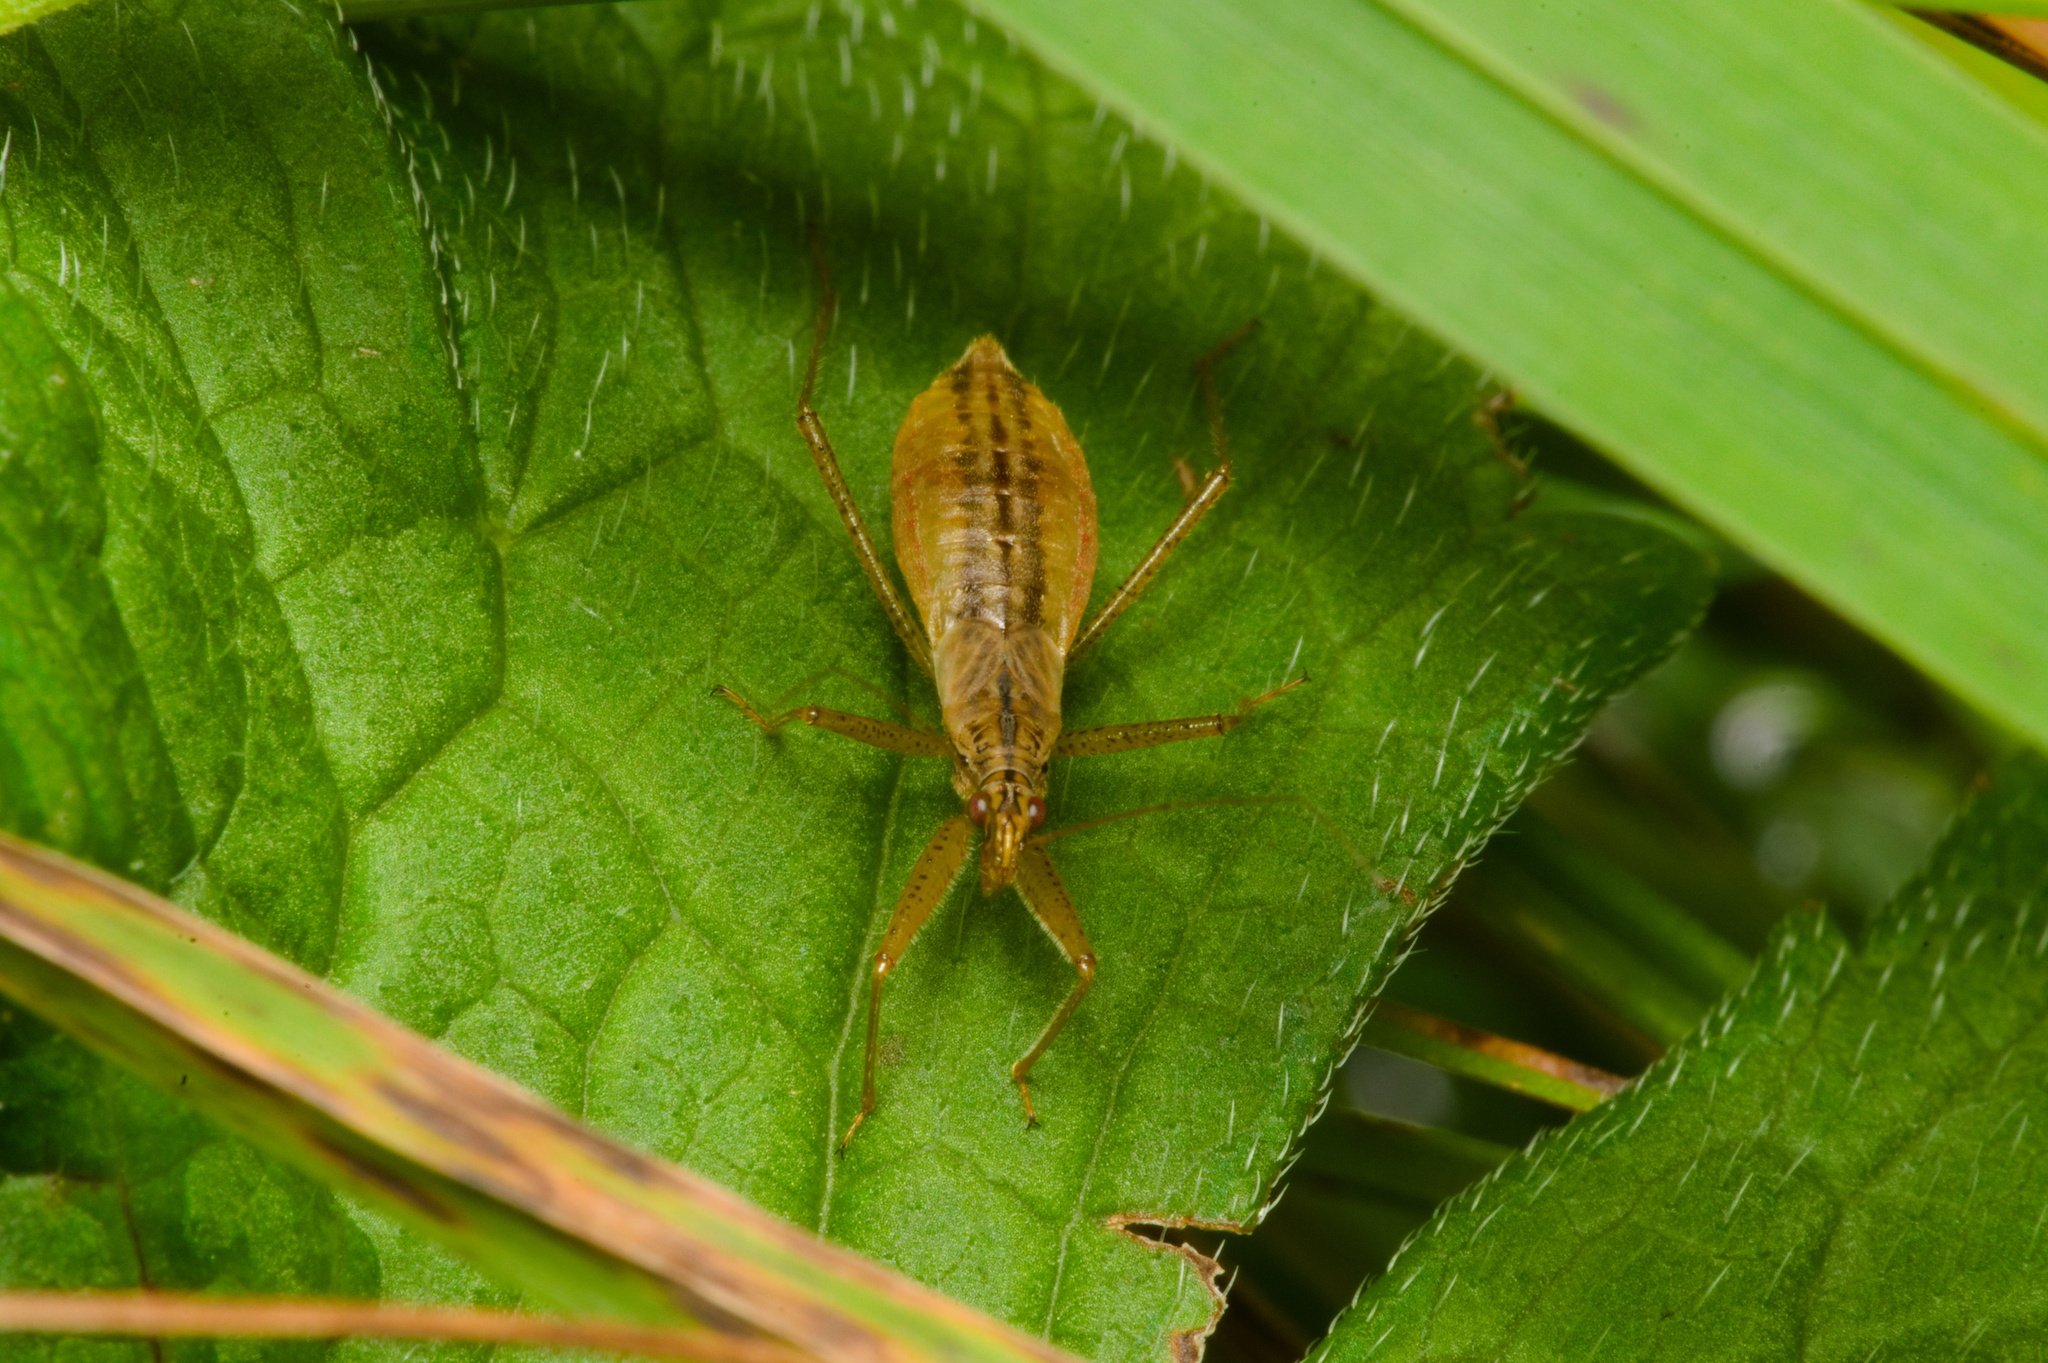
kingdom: Animalia
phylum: Arthropoda
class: Insecta
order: Hemiptera
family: Nabidae
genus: Nabis
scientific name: Nabis limbatus
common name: Marsh damselbug
